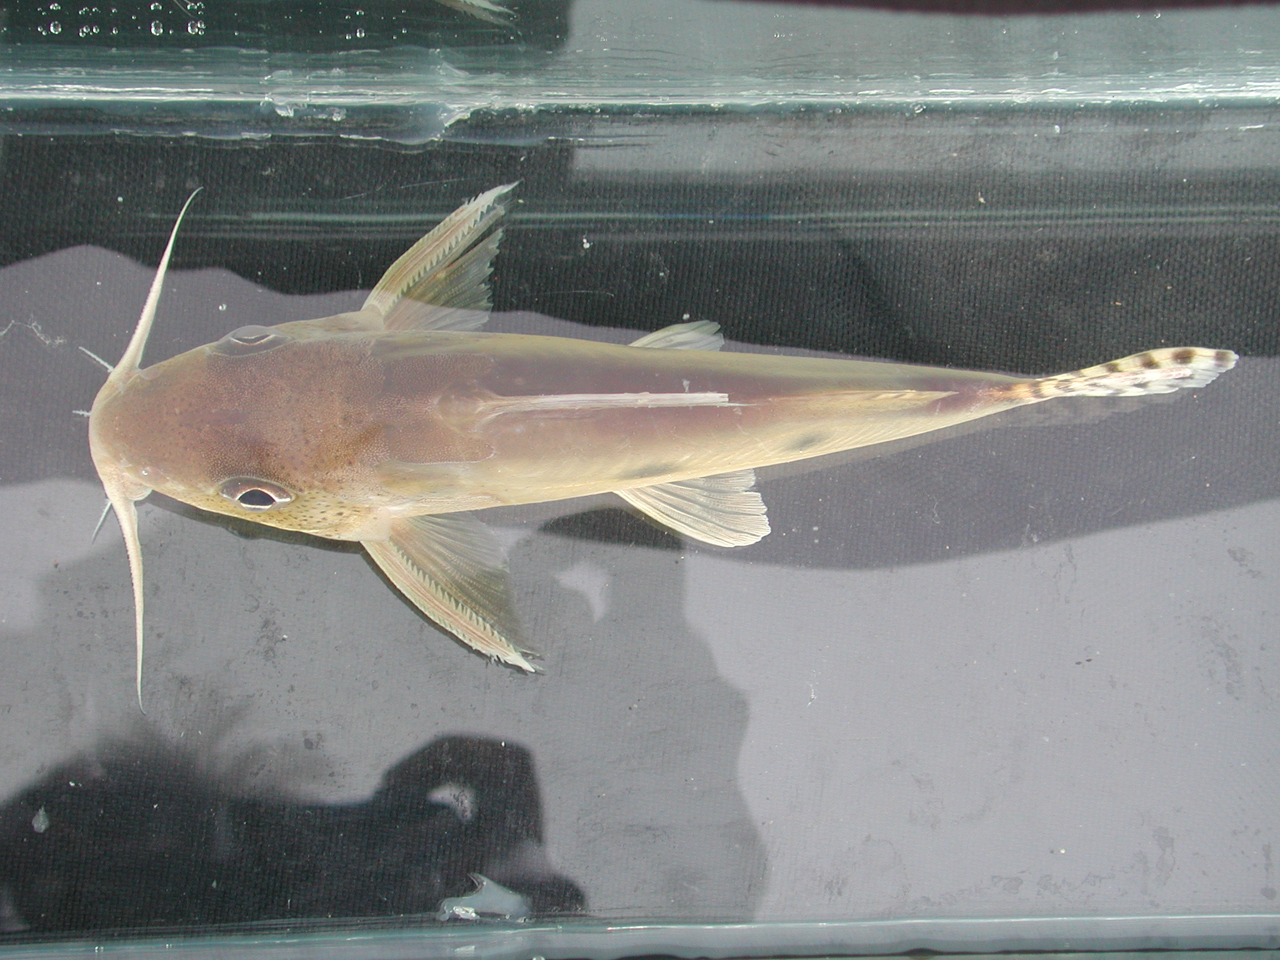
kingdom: Animalia
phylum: Chordata
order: Siluriformes
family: Mochokidae
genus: Synodontis
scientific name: Synodontis nummifer
